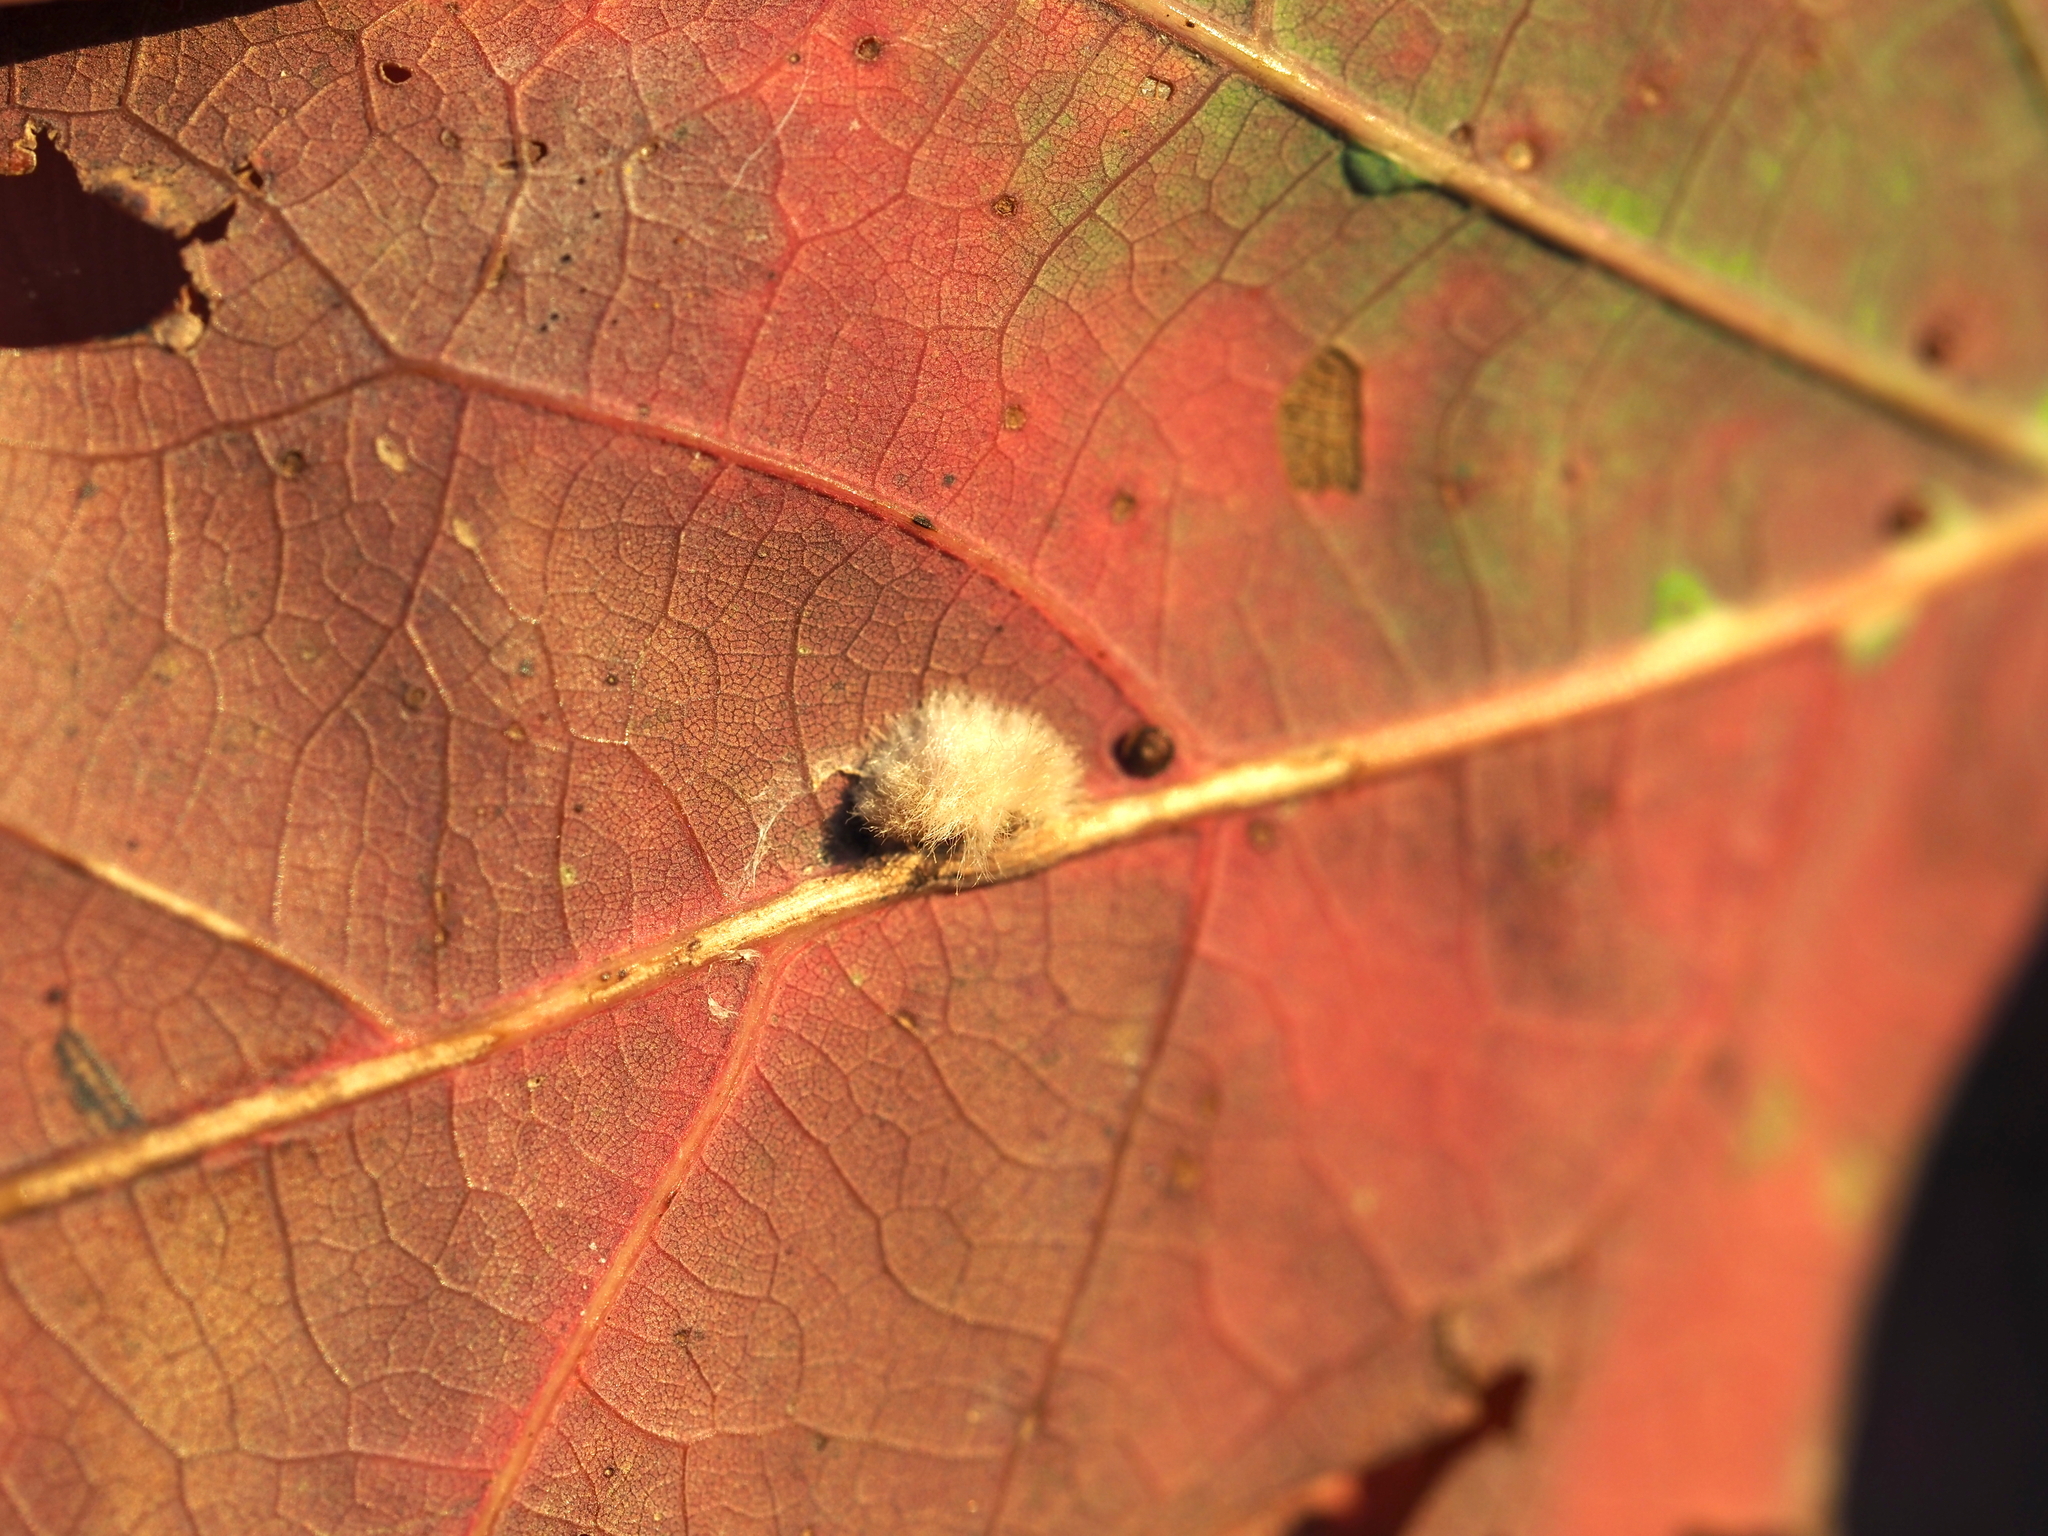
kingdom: Animalia
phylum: Arthropoda
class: Insecta
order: Hymenoptera
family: Cynipidae
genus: Andricus
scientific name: Andricus quercusflocci
